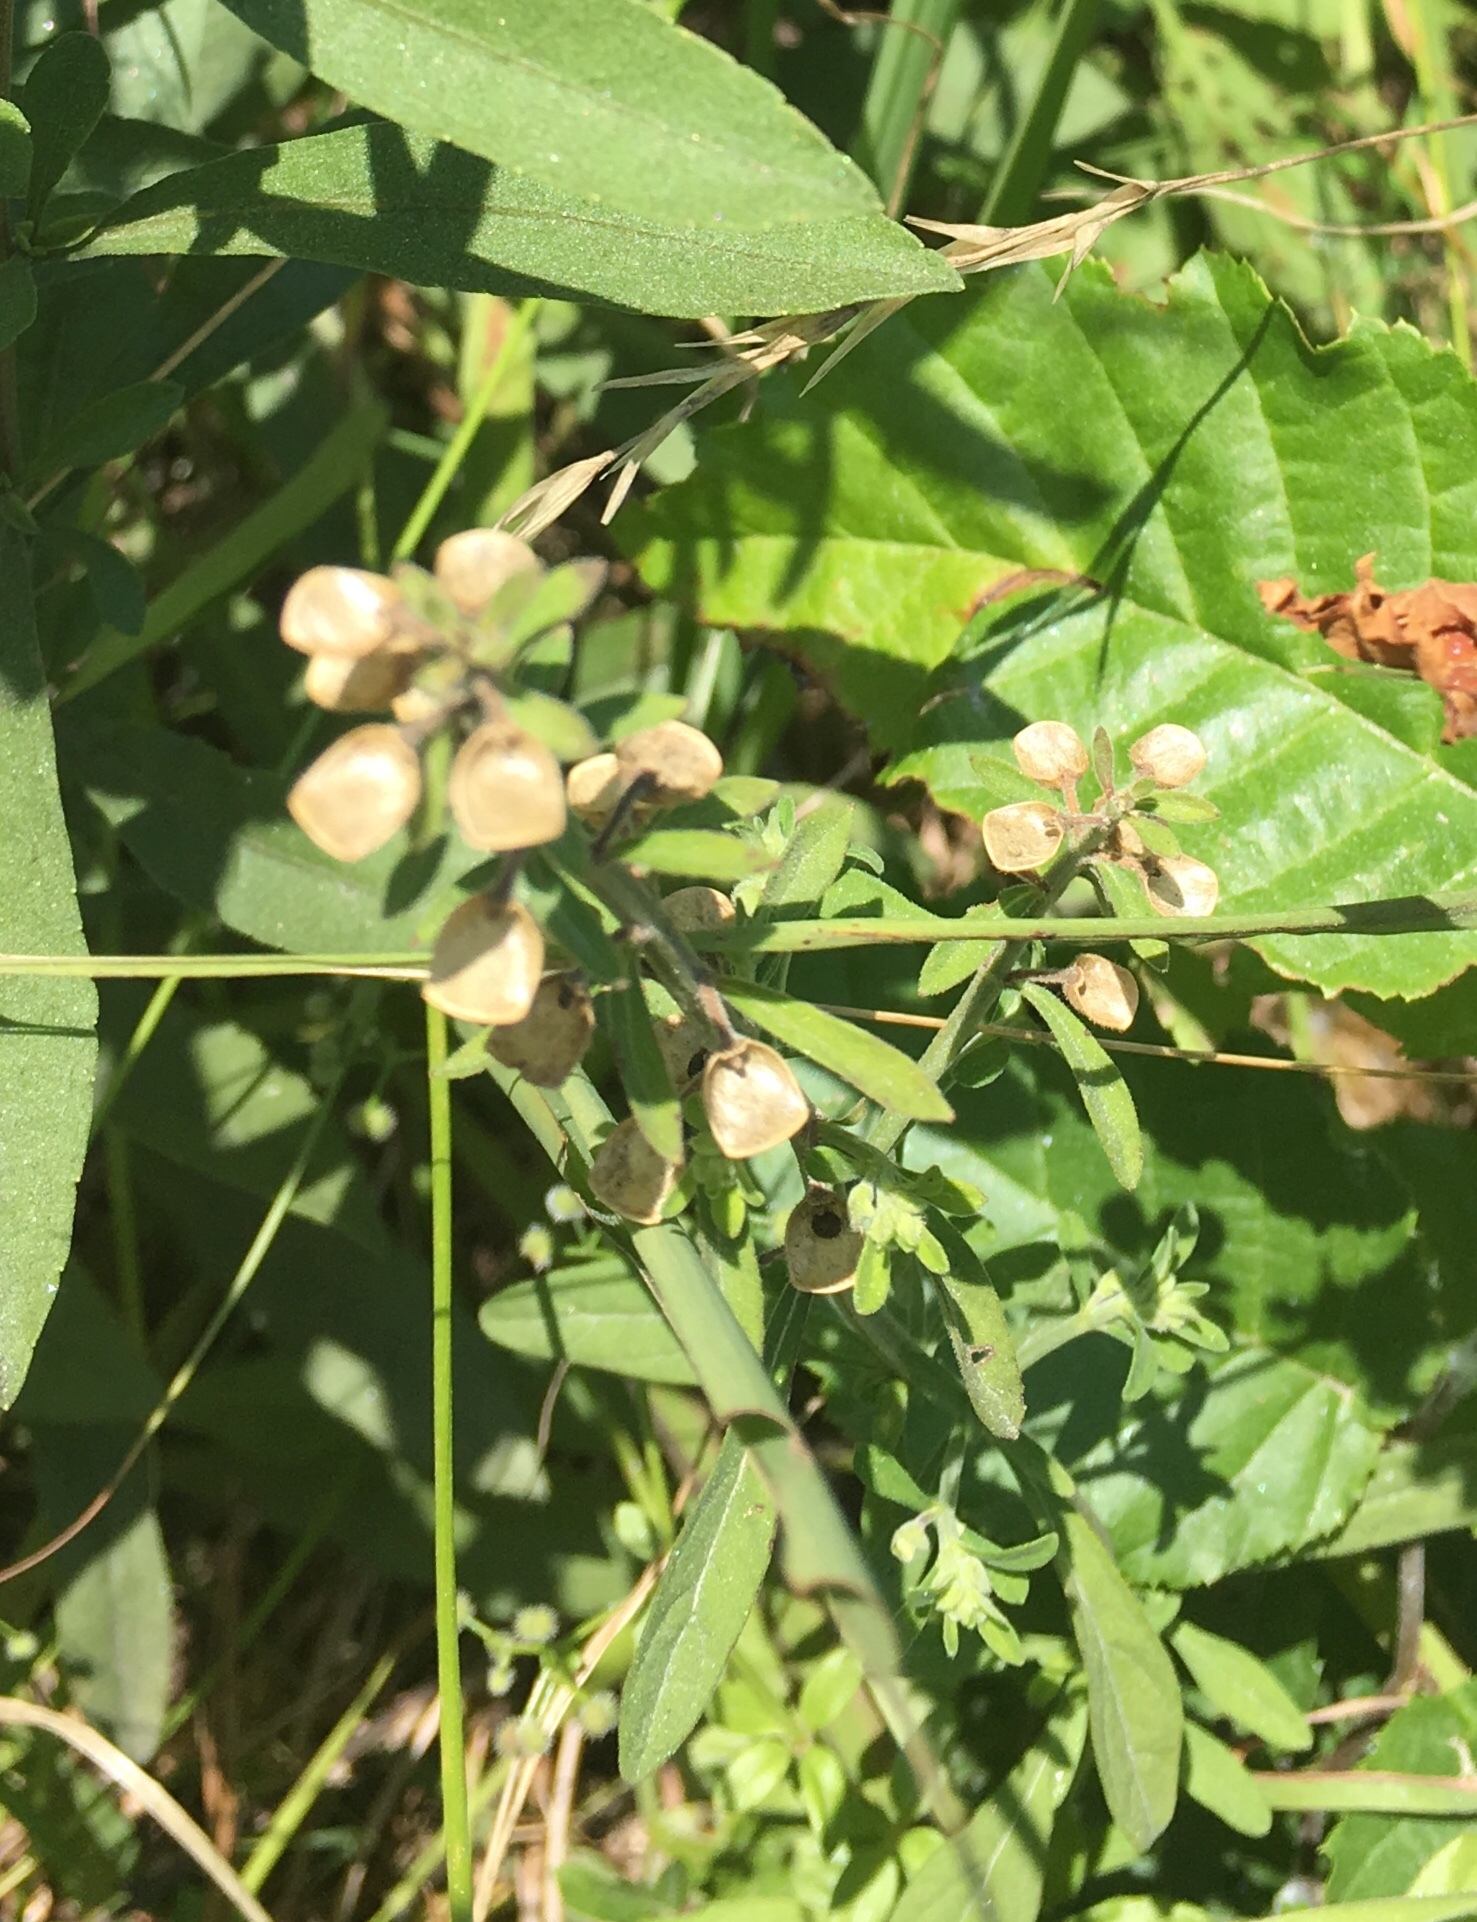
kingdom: Plantae
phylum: Tracheophyta
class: Magnoliopsida
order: Lamiales
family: Lamiaceae
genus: Scutellaria
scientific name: Scutellaria integrifolia
